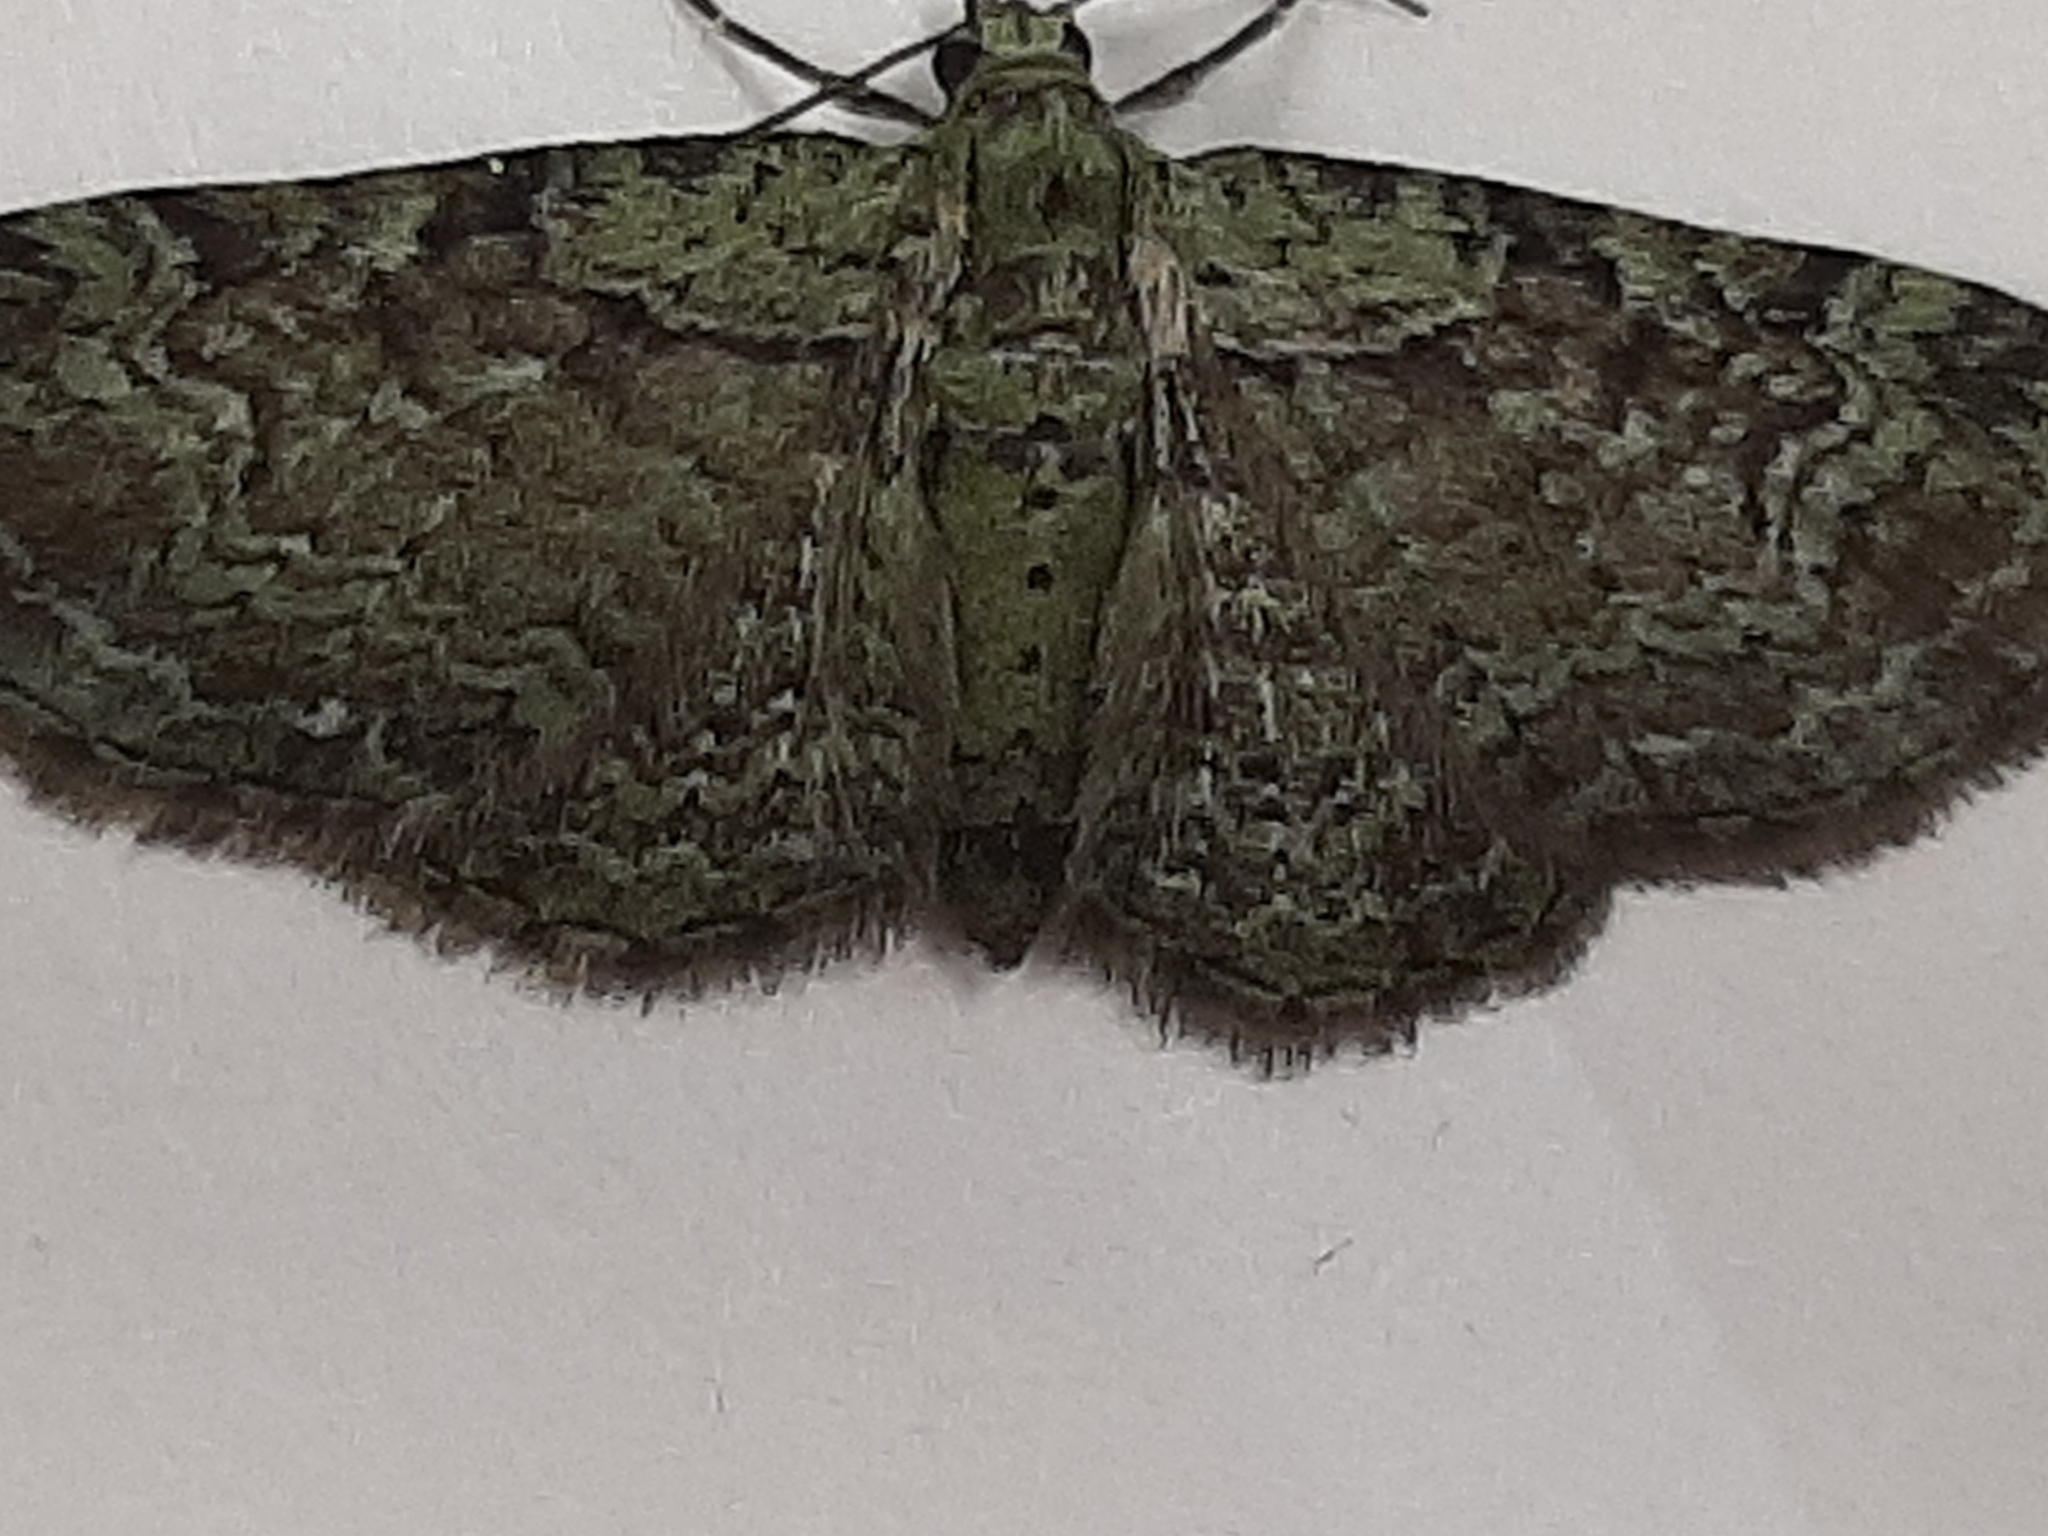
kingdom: Animalia
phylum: Arthropoda
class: Insecta
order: Lepidoptera
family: Geometridae
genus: Pasiphila
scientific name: Pasiphila rectangulata
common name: Green pug
